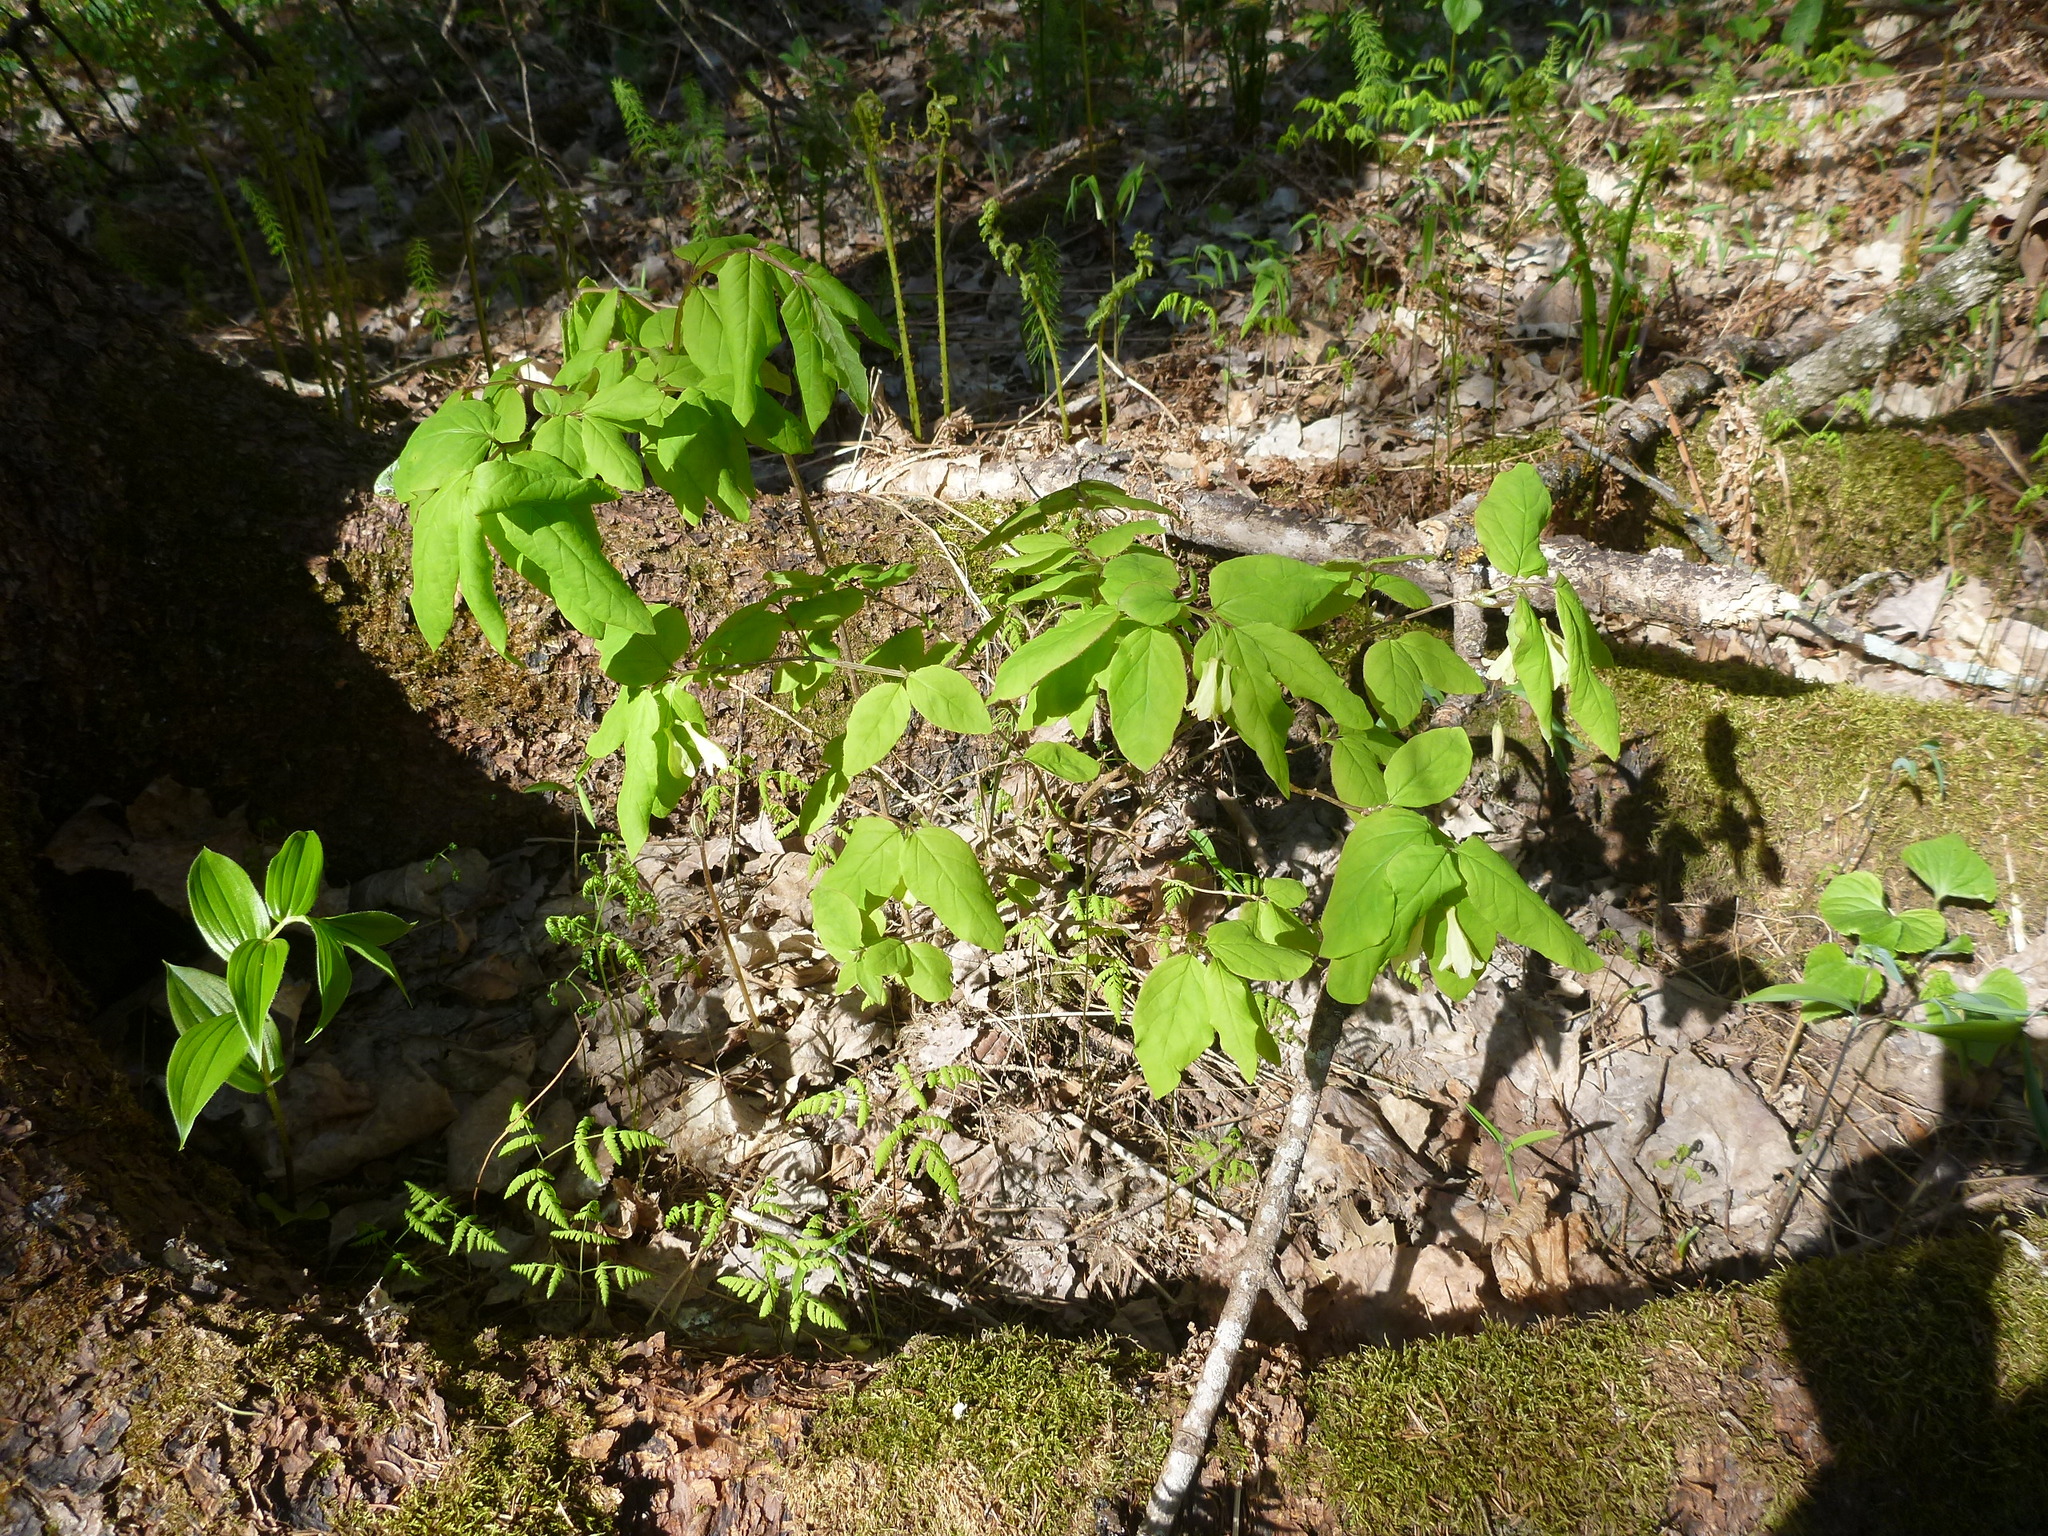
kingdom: Plantae
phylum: Tracheophyta
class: Magnoliopsida
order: Dipsacales
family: Caprifoliaceae
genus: Lonicera
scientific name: Lonicera canadensis
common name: American fly-honeysuckle
